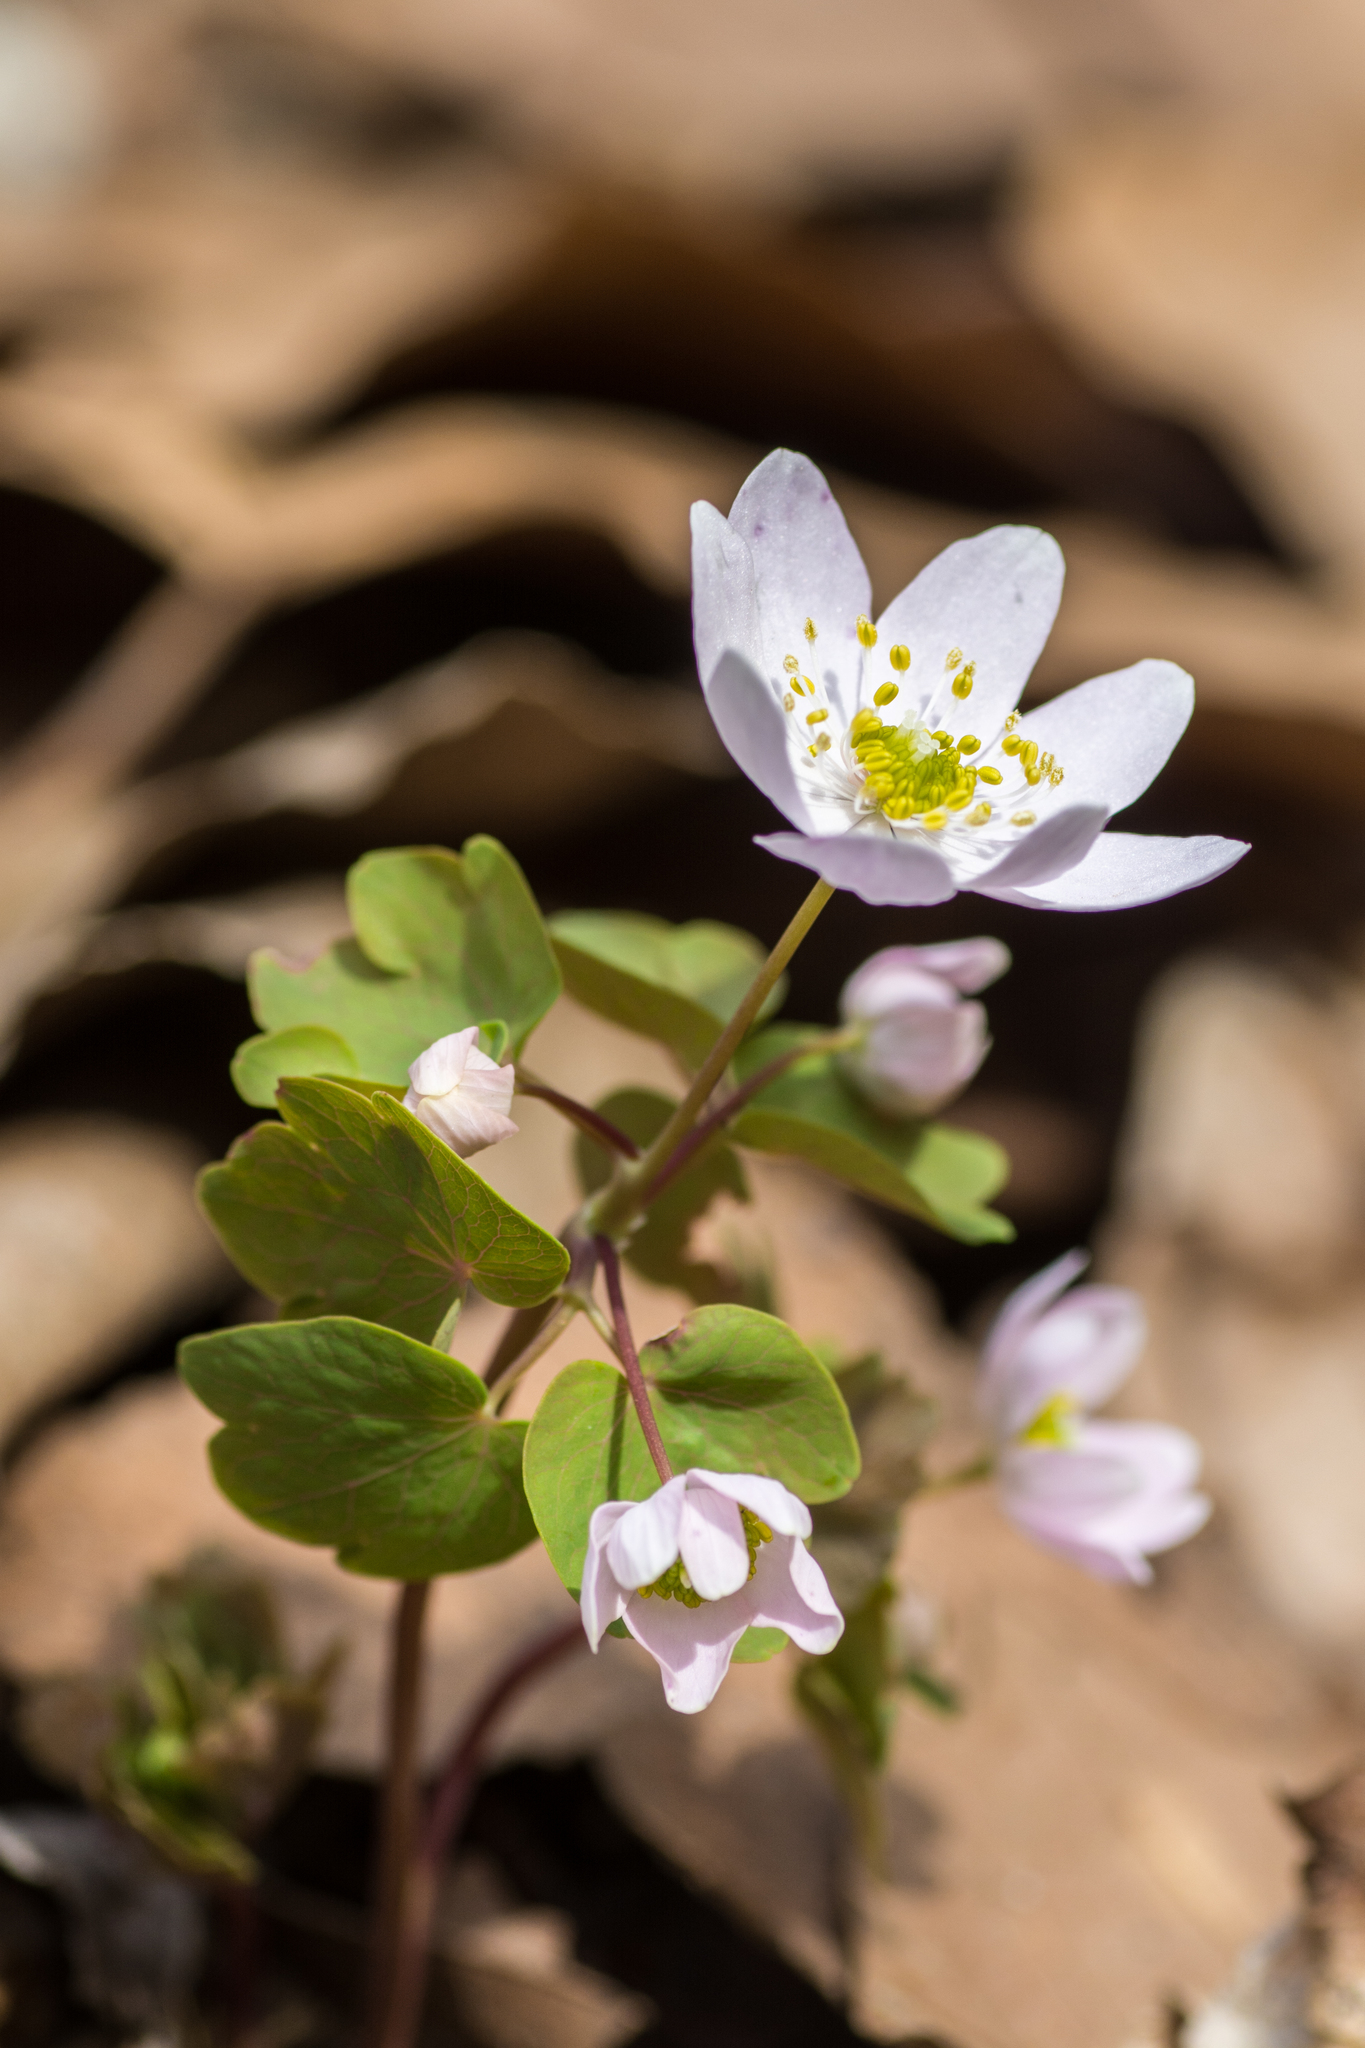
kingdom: Plantae
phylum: Tracheophyta
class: Magnoliopsida
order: Ranunculales
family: Ranunculaceae
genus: Thalictrum
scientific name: Thalictrum thalictroides
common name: Rue-anemone
